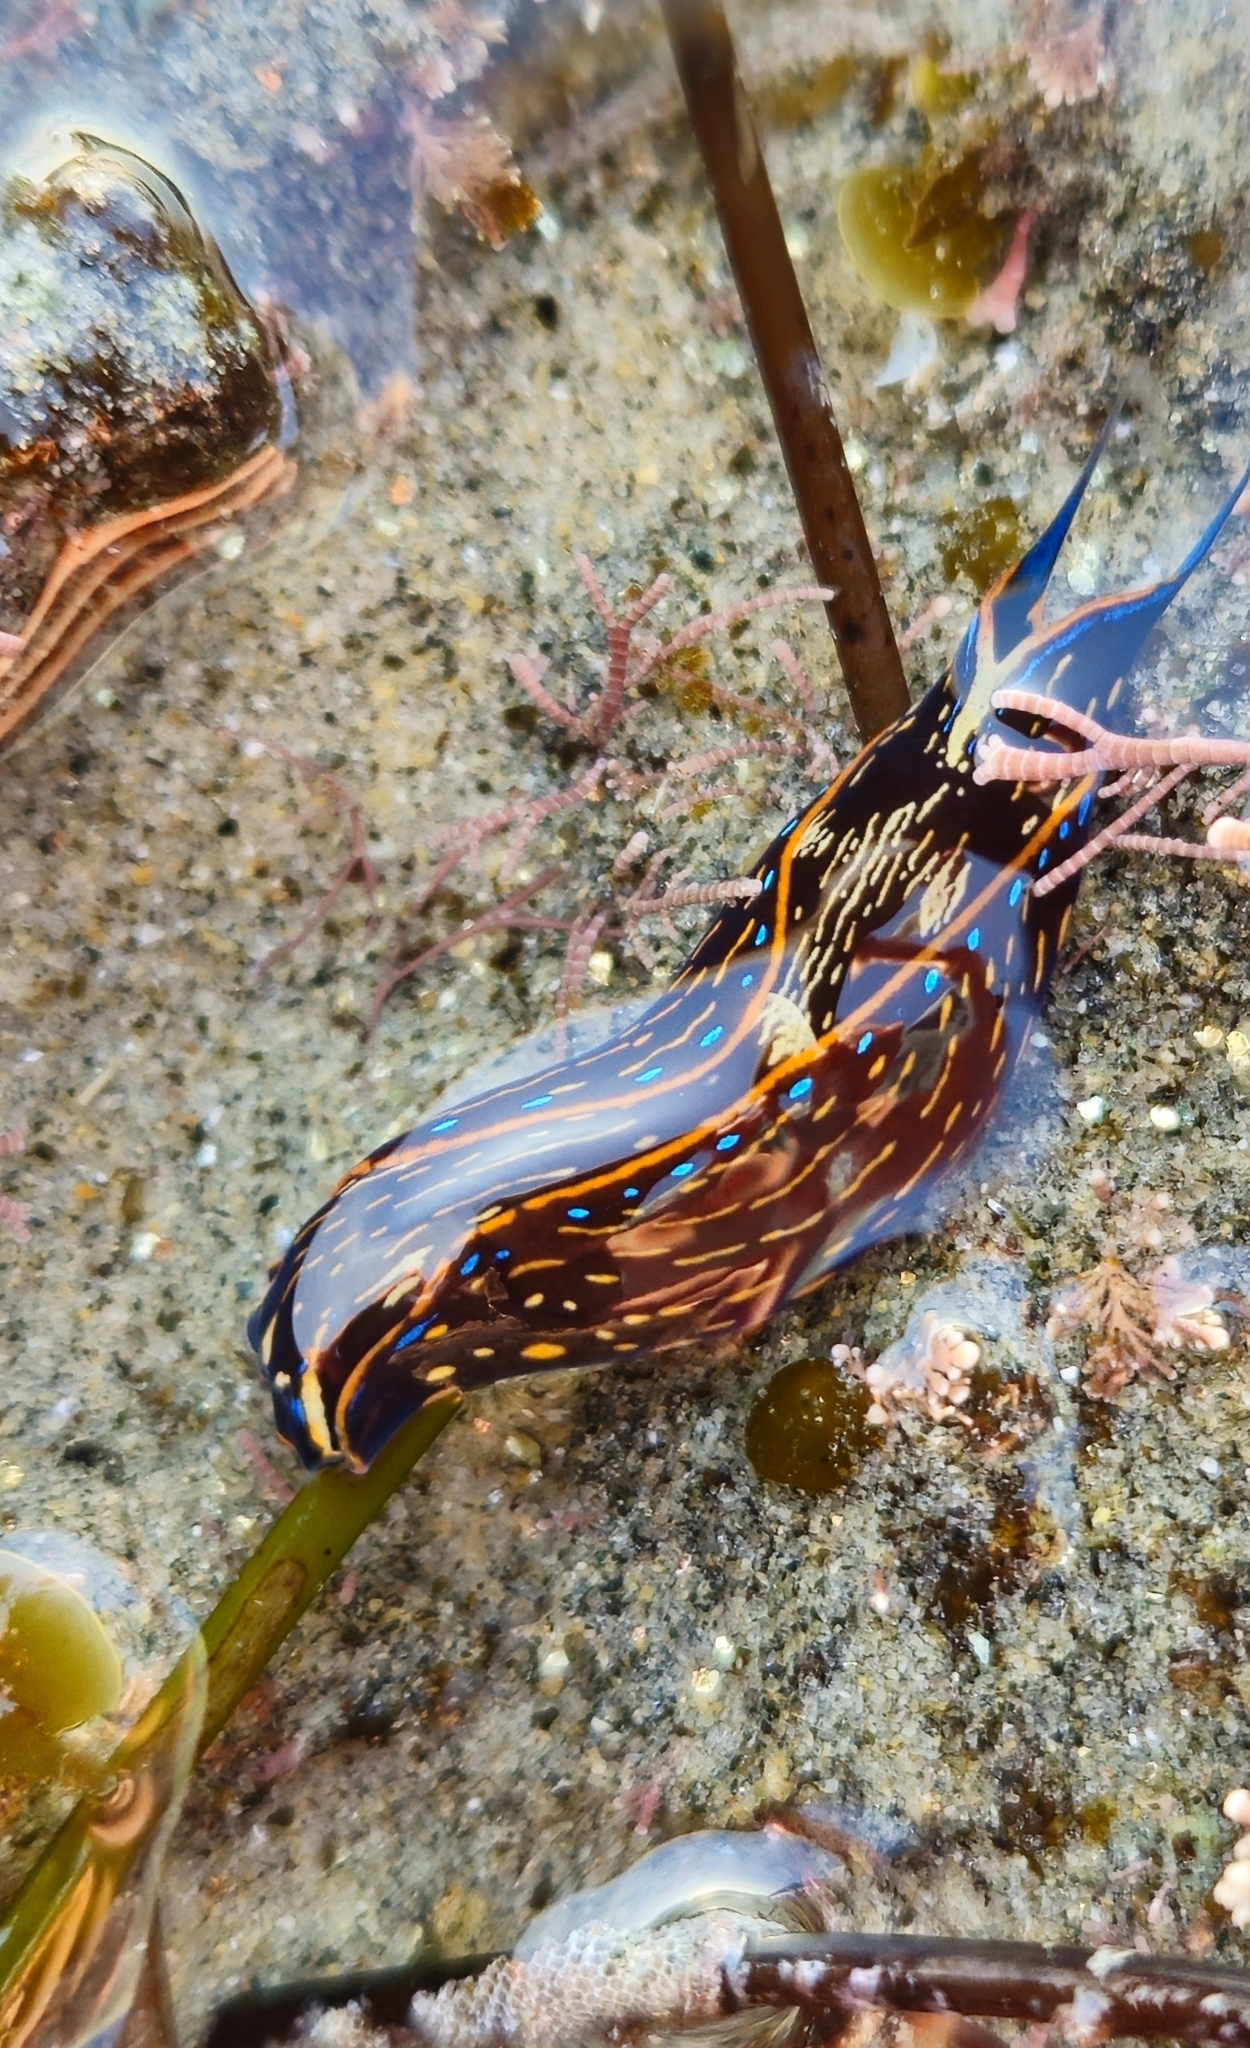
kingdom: Animalia
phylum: Mollusca
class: Gastropoda
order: Cephalaspidea
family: Aglajidae
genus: Navanax
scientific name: Navanax inermis
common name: California aglaja
